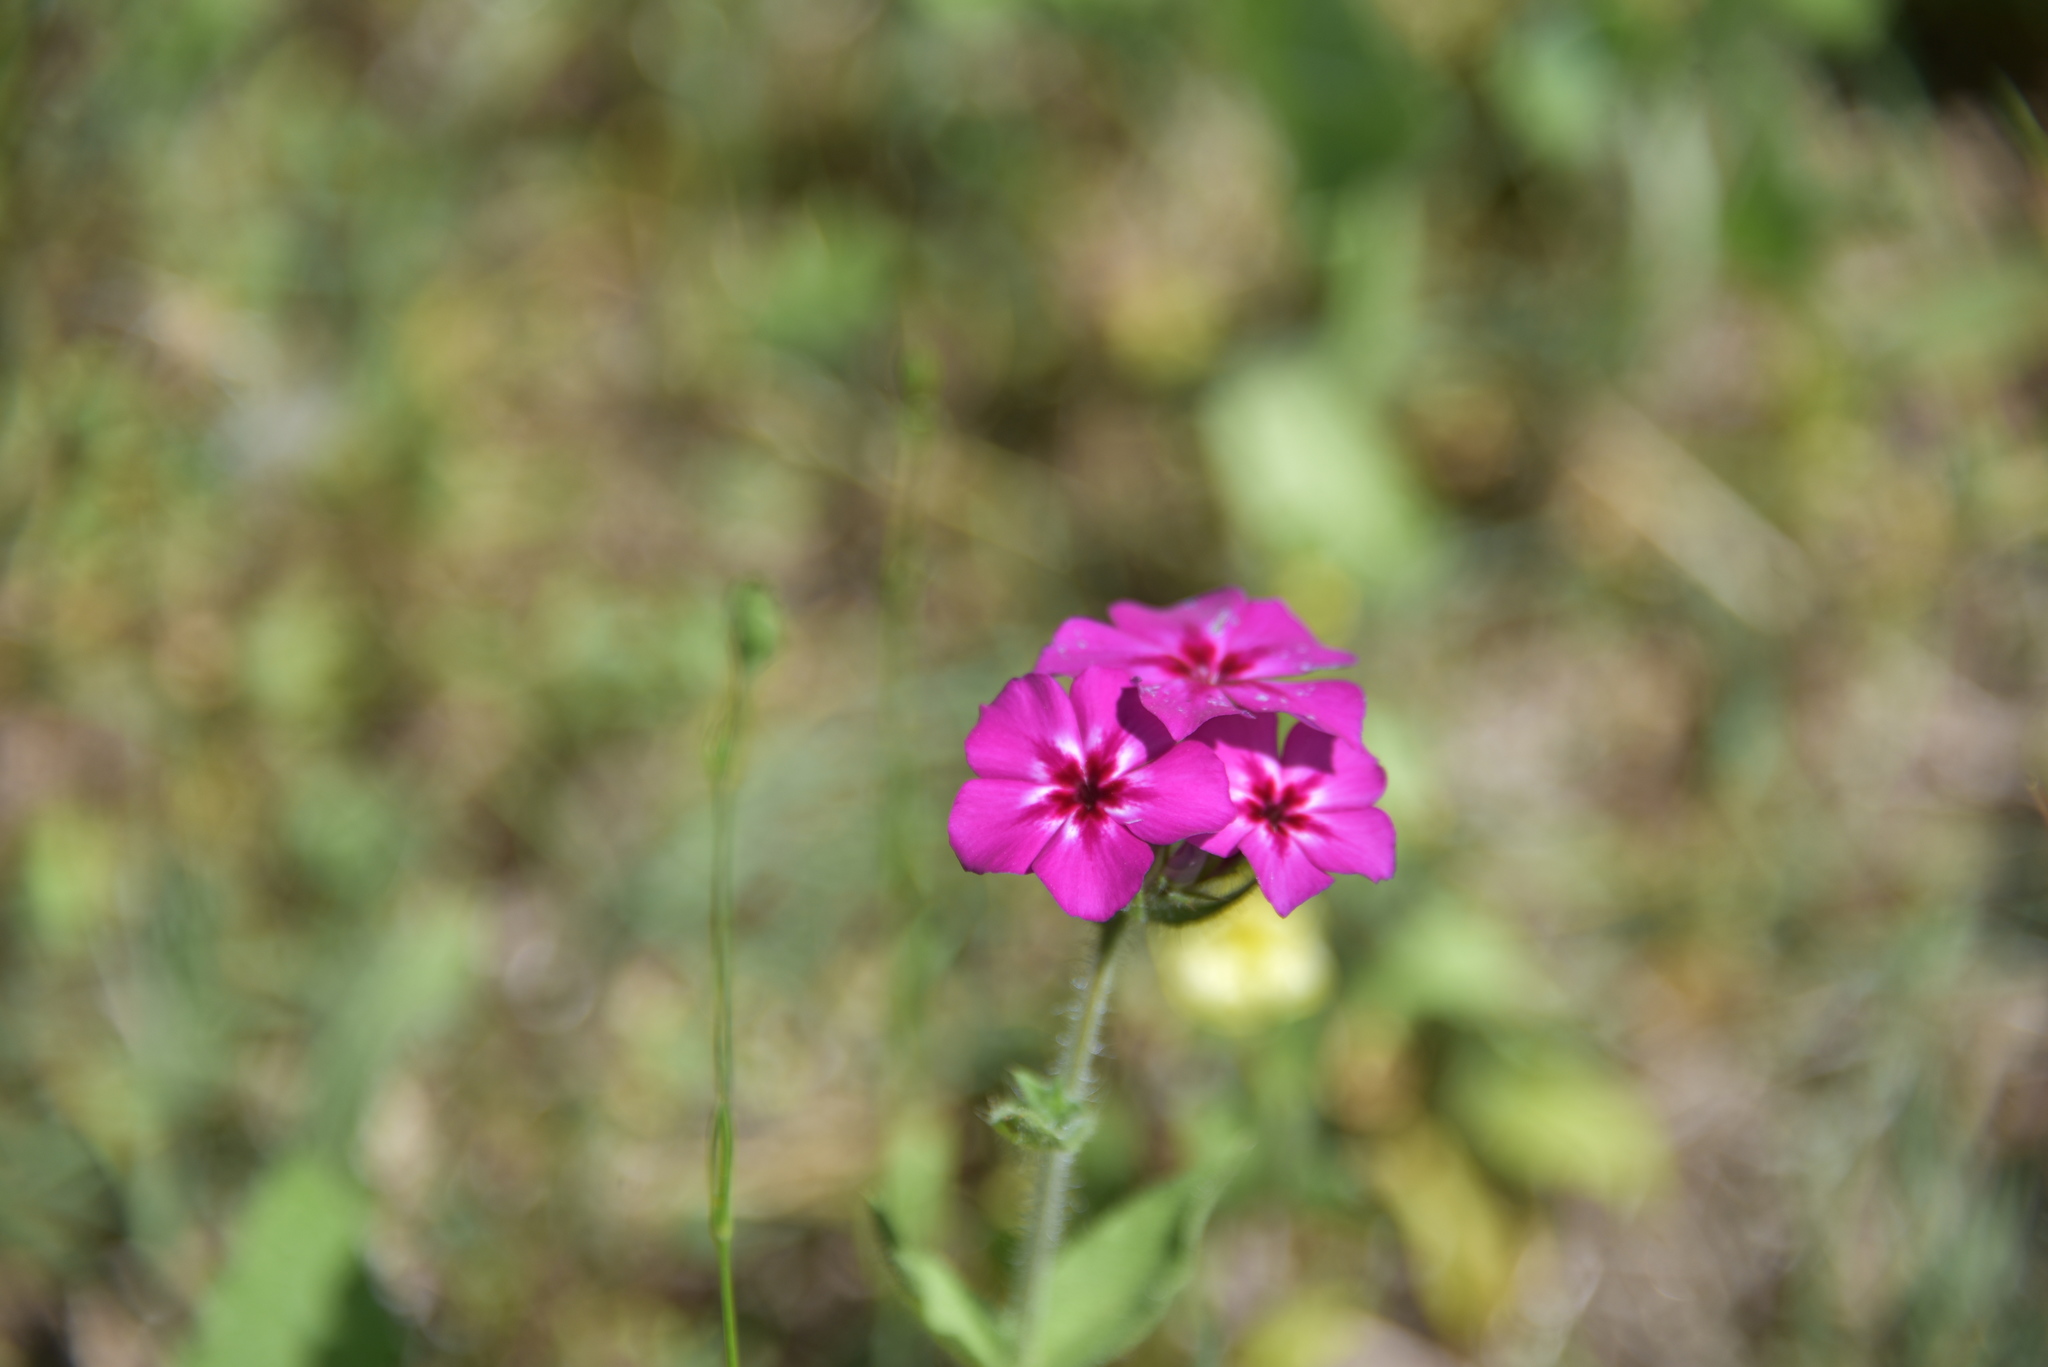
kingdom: Plantae
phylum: Tracheophyta
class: Magnoliopsida
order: Ericales
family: Polemoniaceae
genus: Phlox
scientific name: Phlox drummondii
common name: Drummond's phlox
